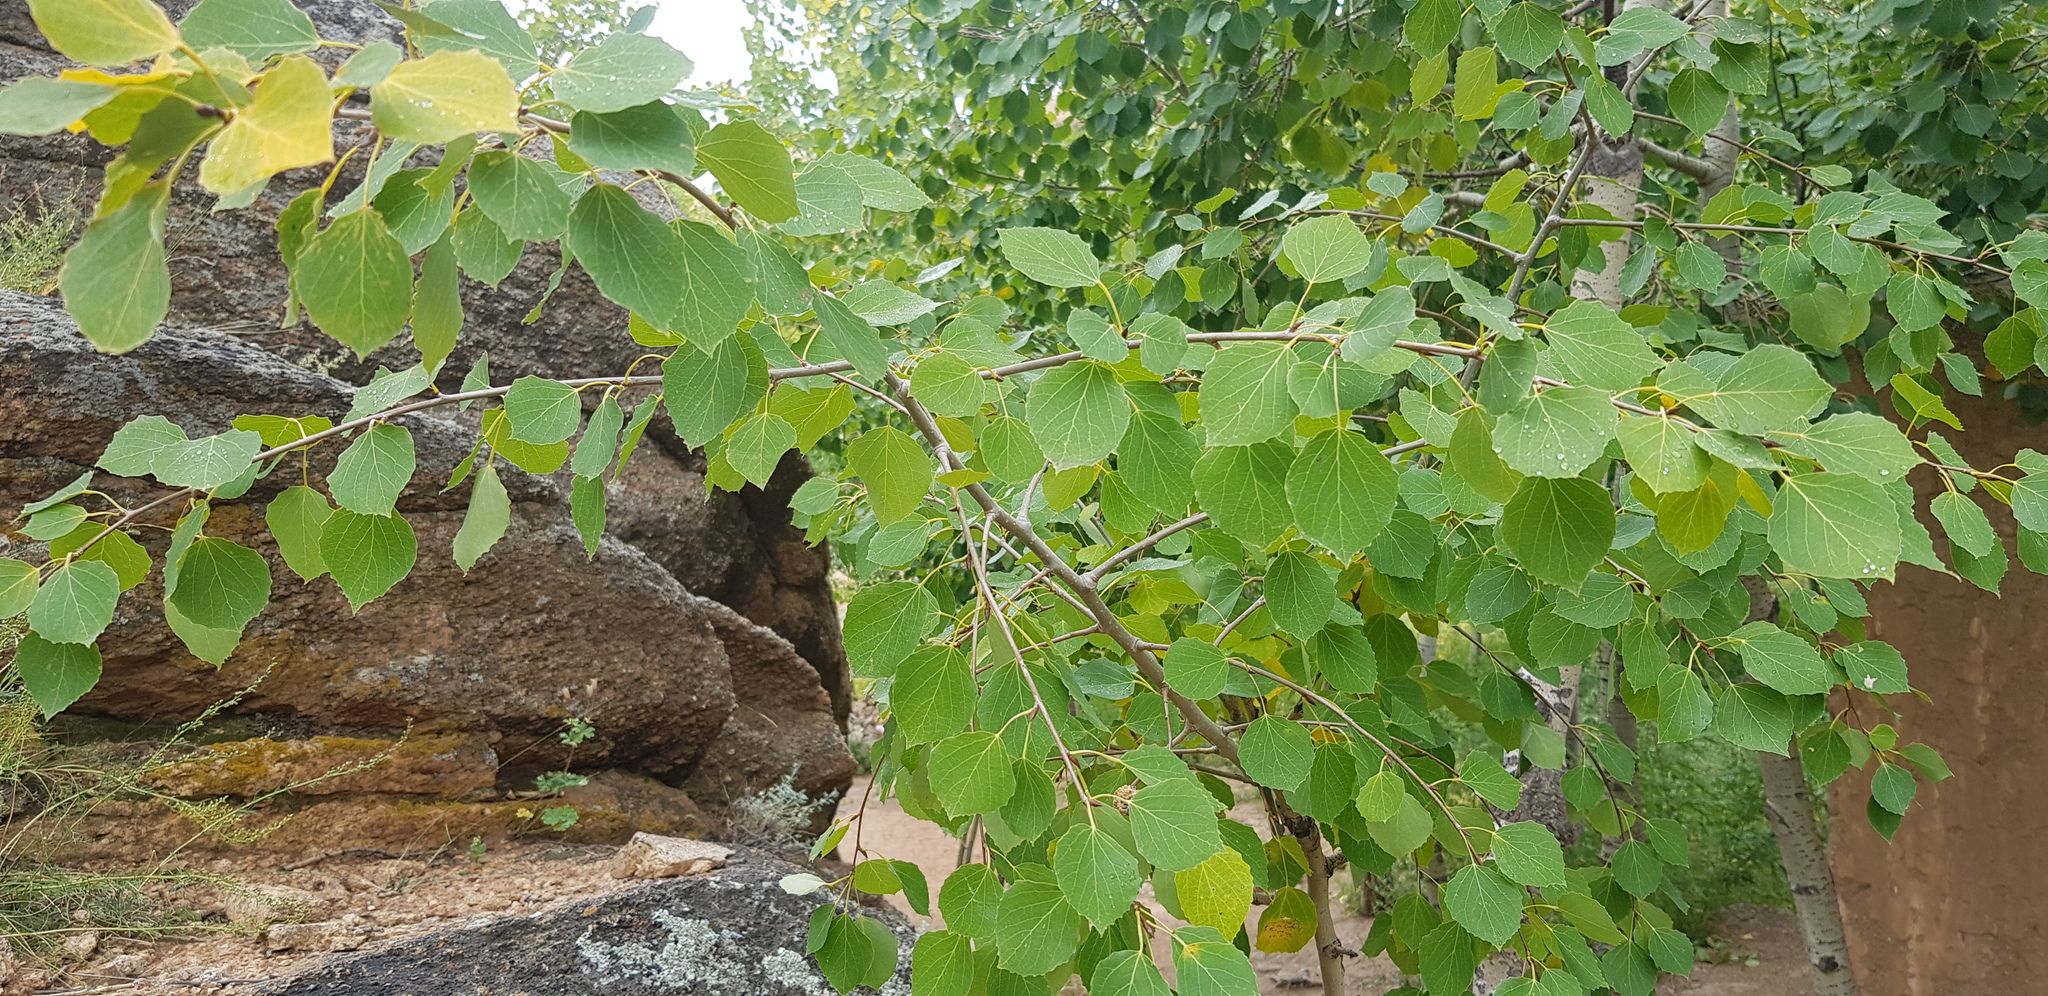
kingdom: Plantae
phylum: Tracheophyta
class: Magnoliopsida
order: Malpighiales
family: Salicaceae
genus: Populus
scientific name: Populus tremula
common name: European aspen
